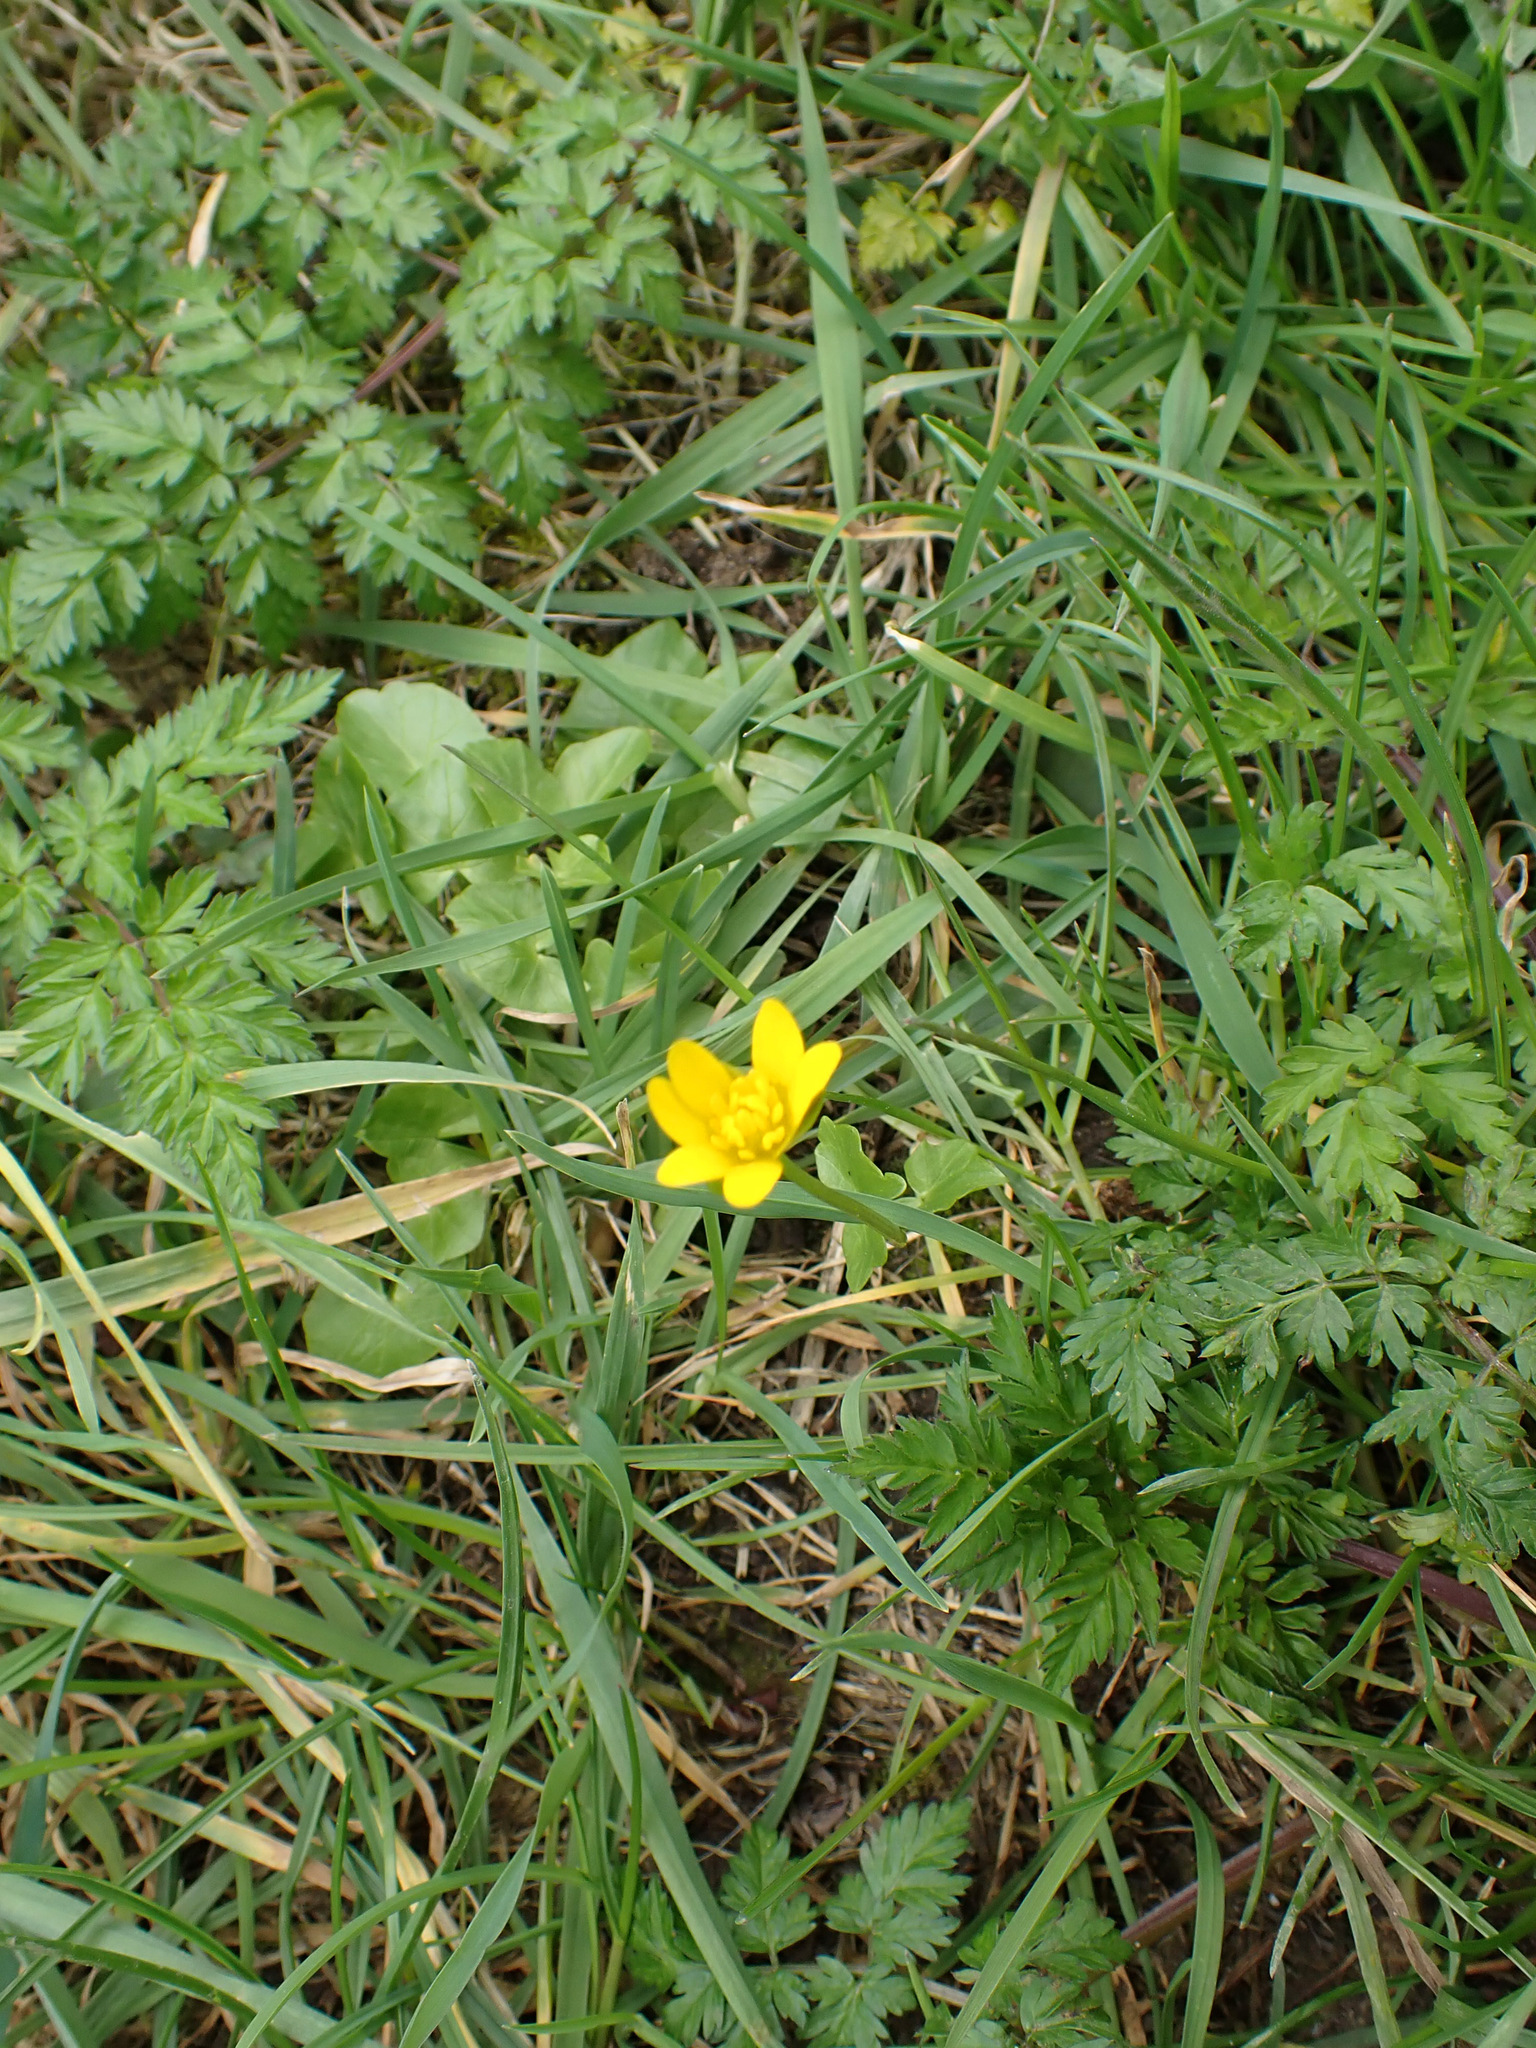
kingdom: Plantae
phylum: Tracheophyta
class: Magnoliopsida
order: Ranunculales
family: Ranunculaceae
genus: Ficaria
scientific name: Ficaria verna
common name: Lesser celandine
